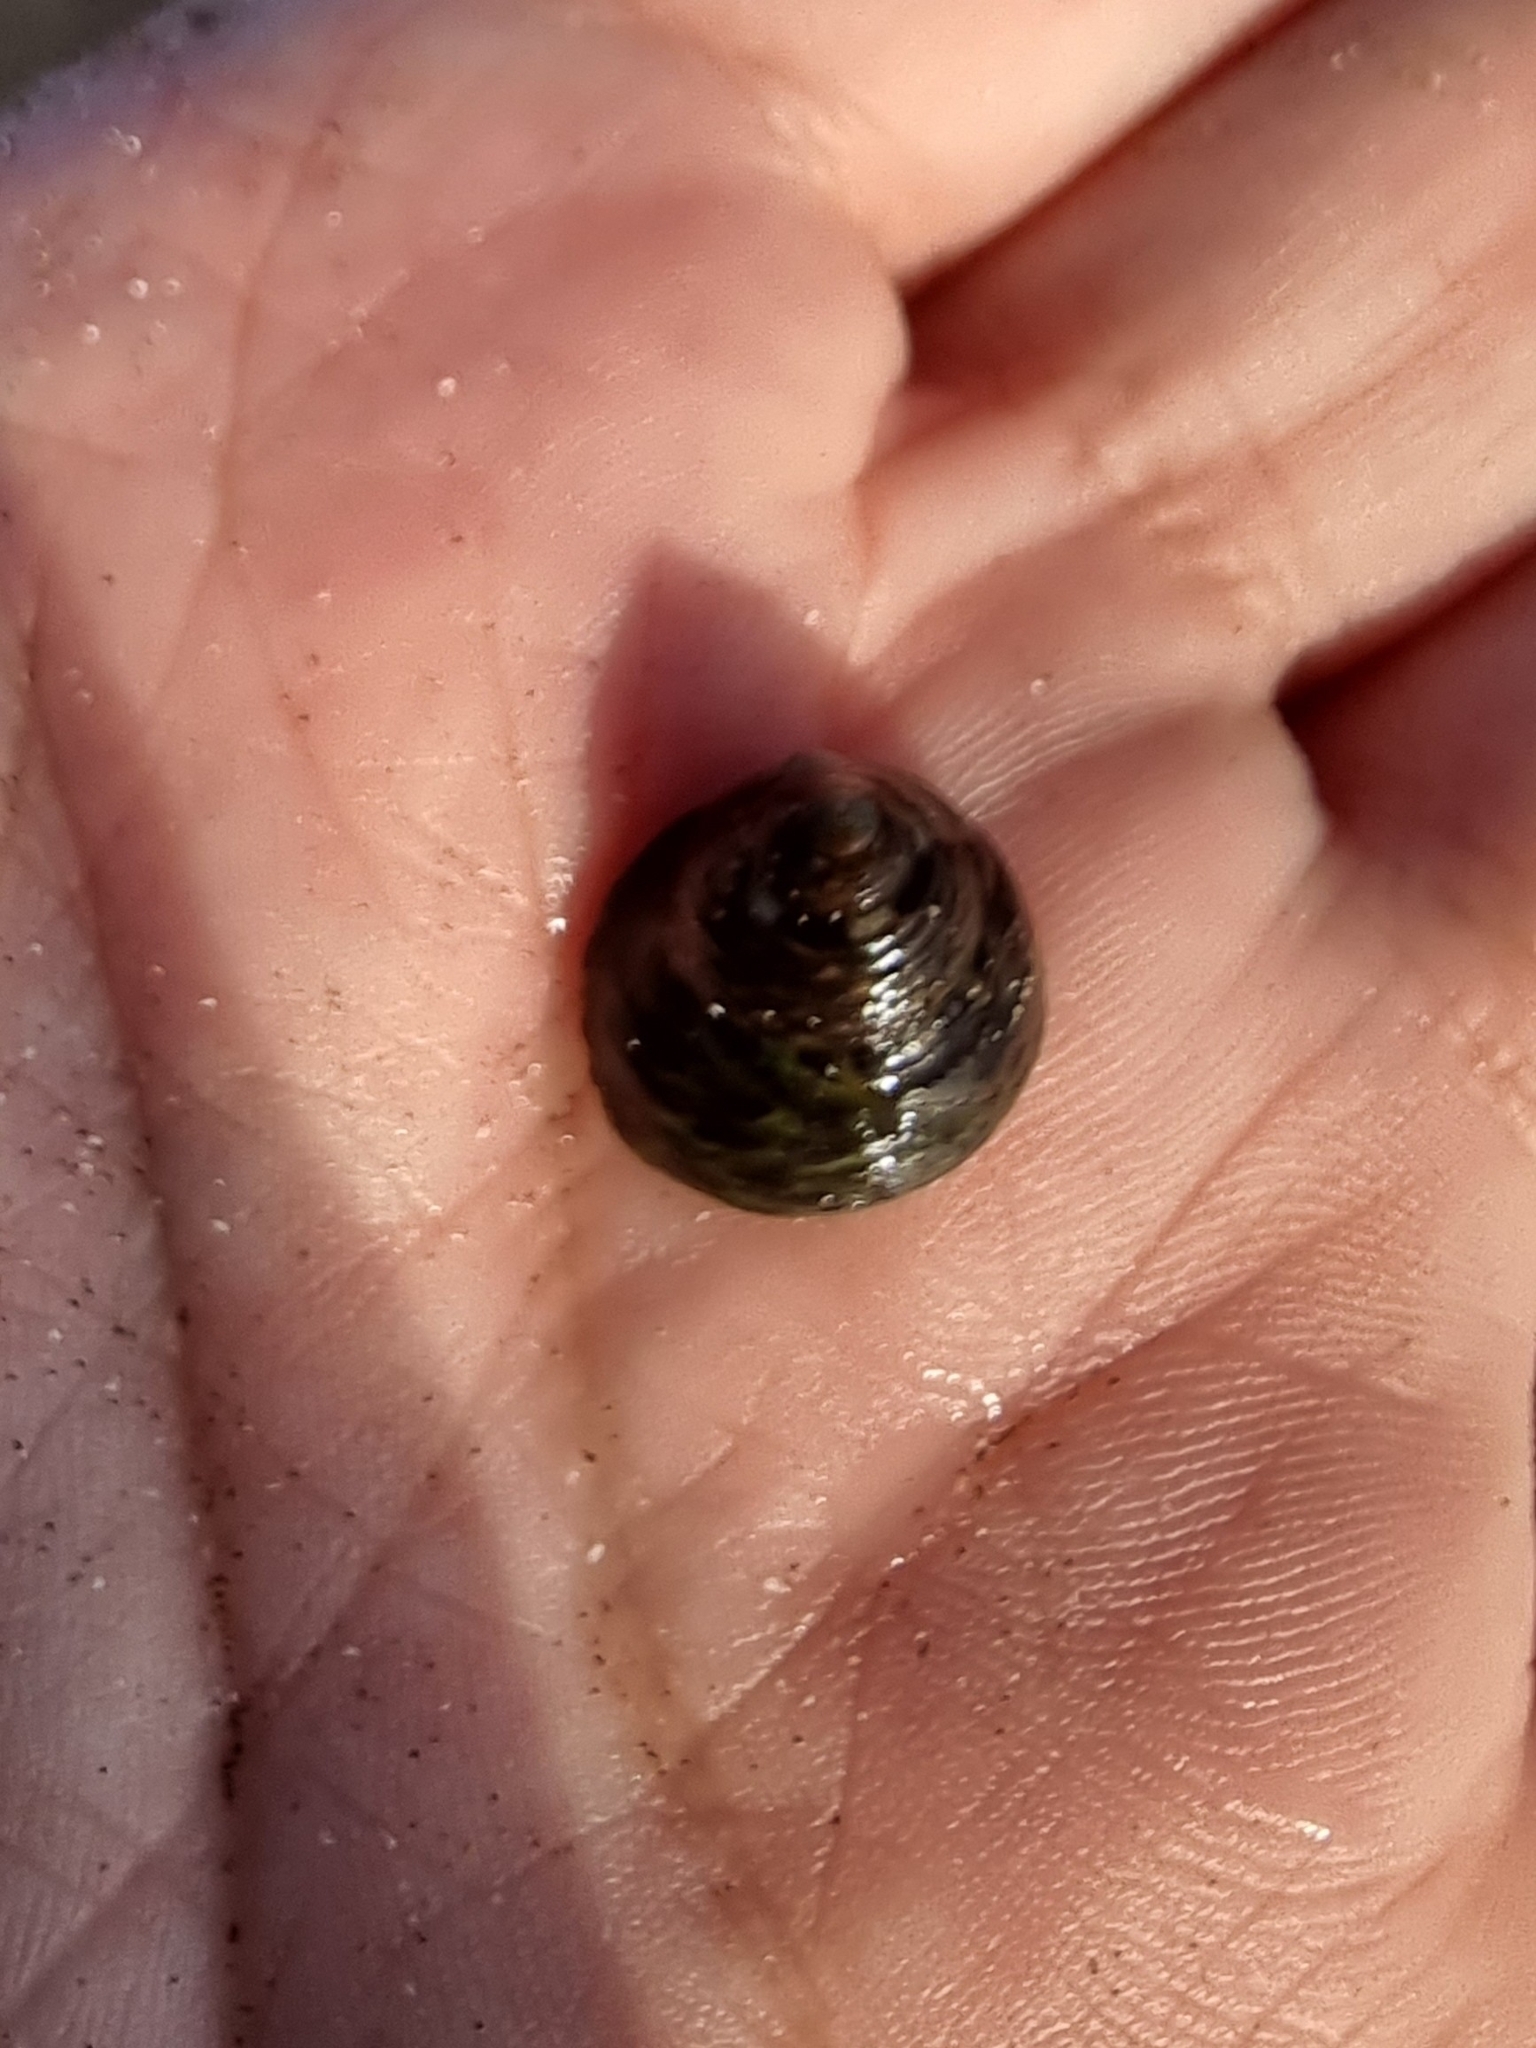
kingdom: Animalia
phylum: Mollusca
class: Gastropoda
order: Trochida
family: Trochidae
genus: Phorcus
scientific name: Phorcus sauciatus
